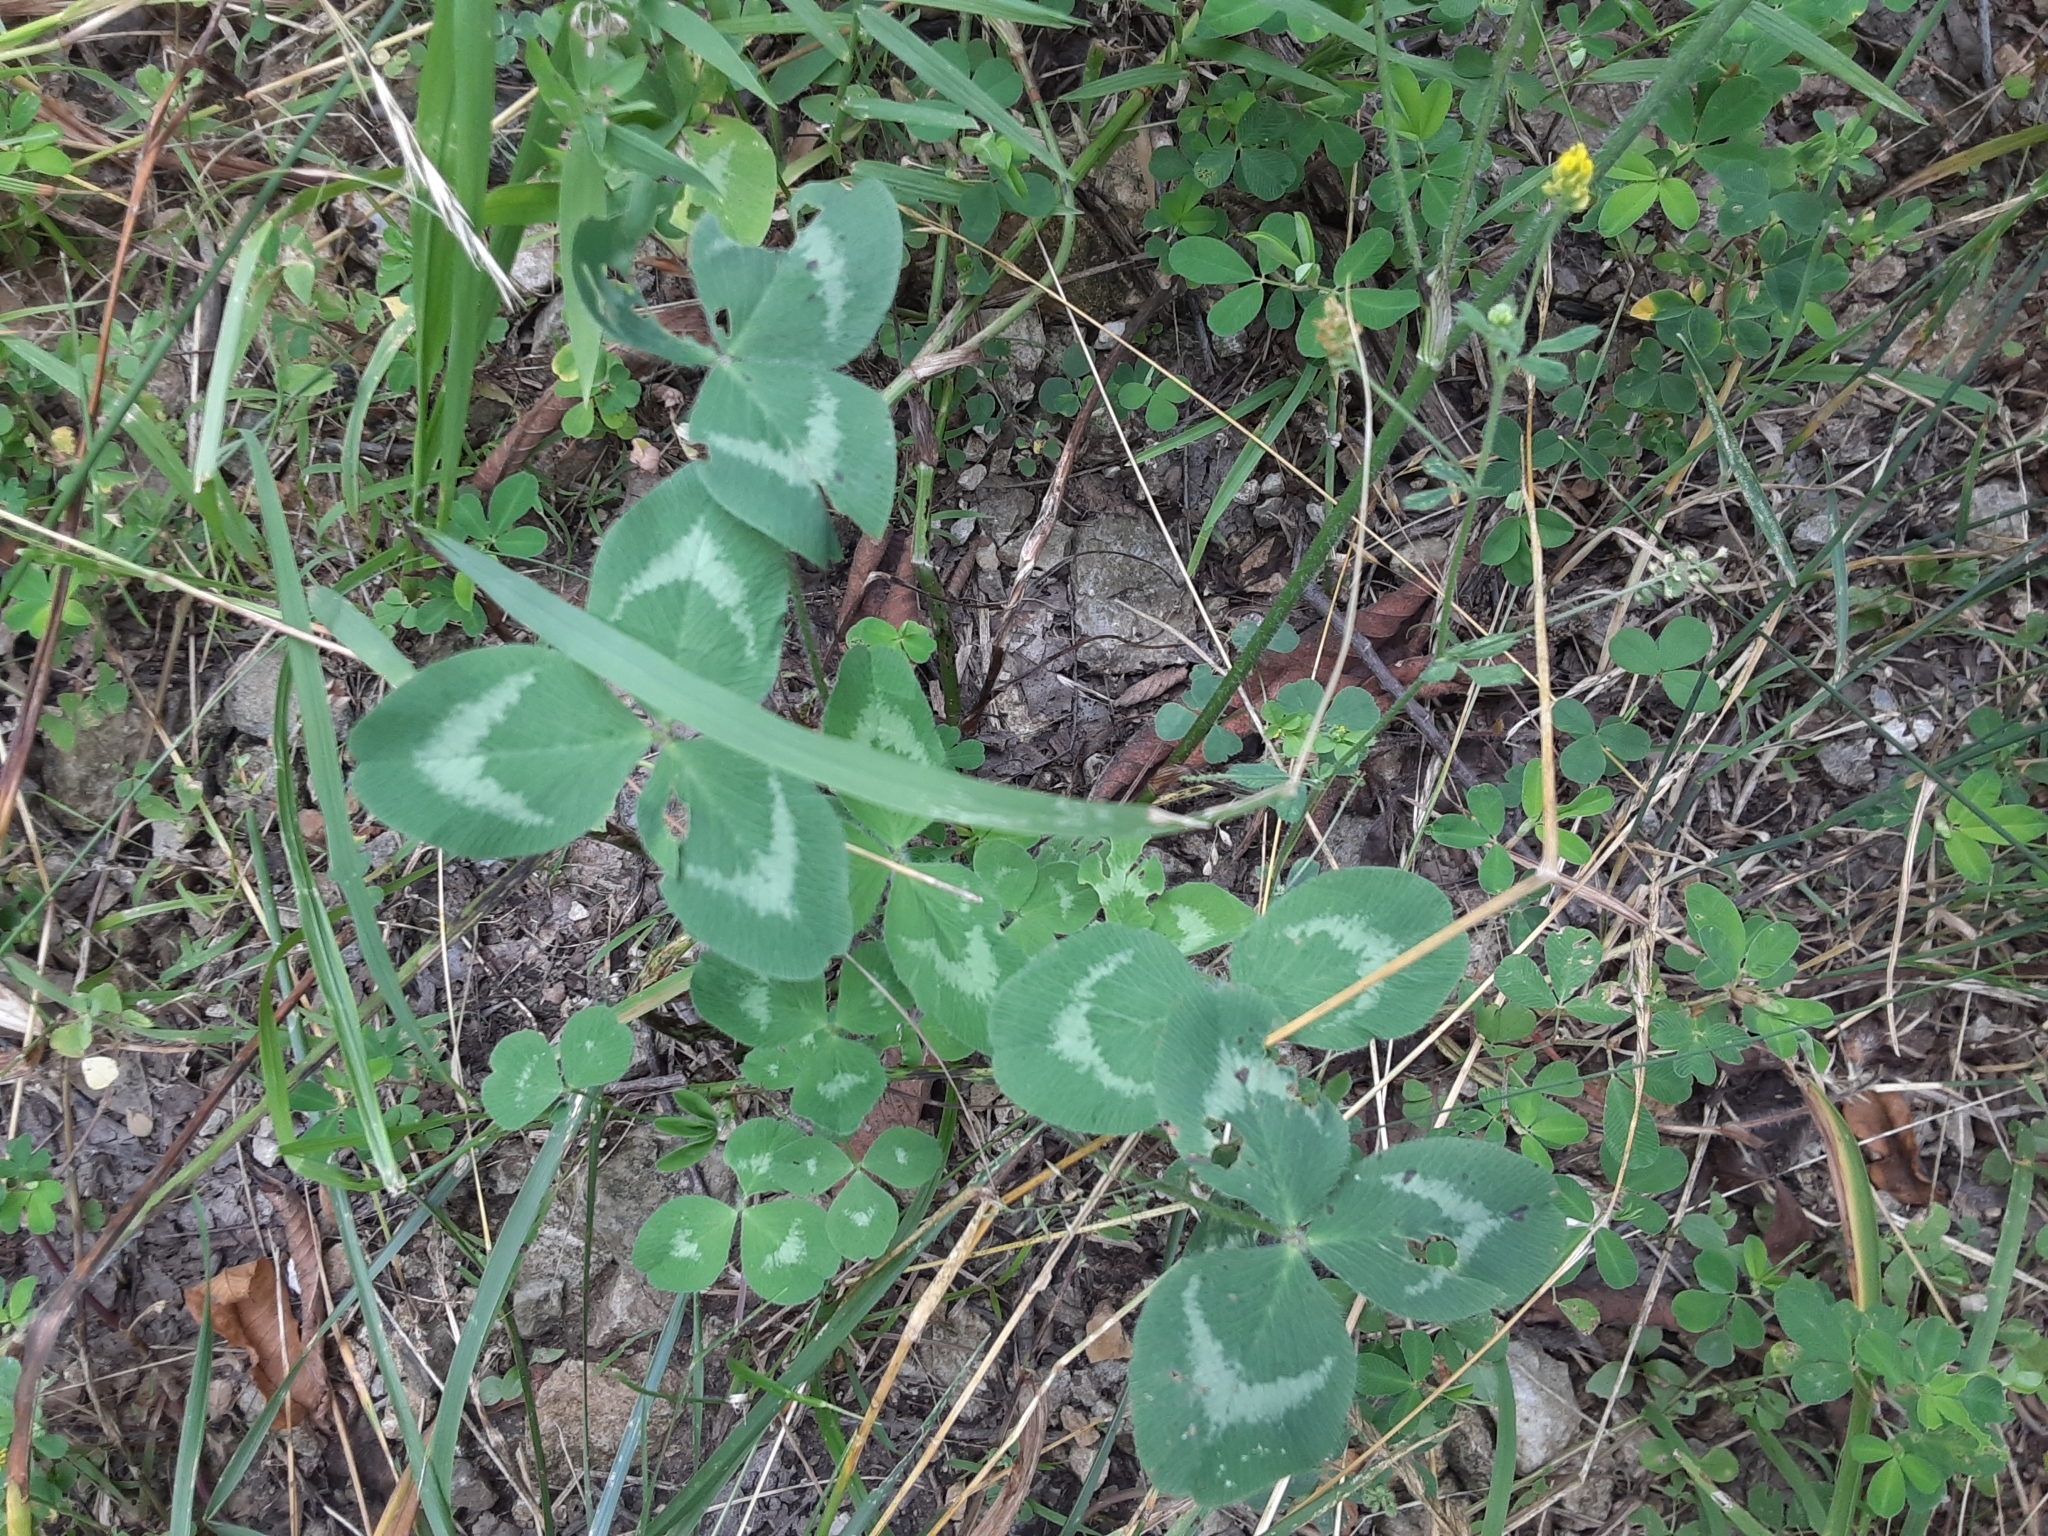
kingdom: Plantae
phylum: Tracheophyta
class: Magnoliopsida
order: Fabales
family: Fabaceae
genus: Trifolium
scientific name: Trifolium pratense
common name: Red clover
